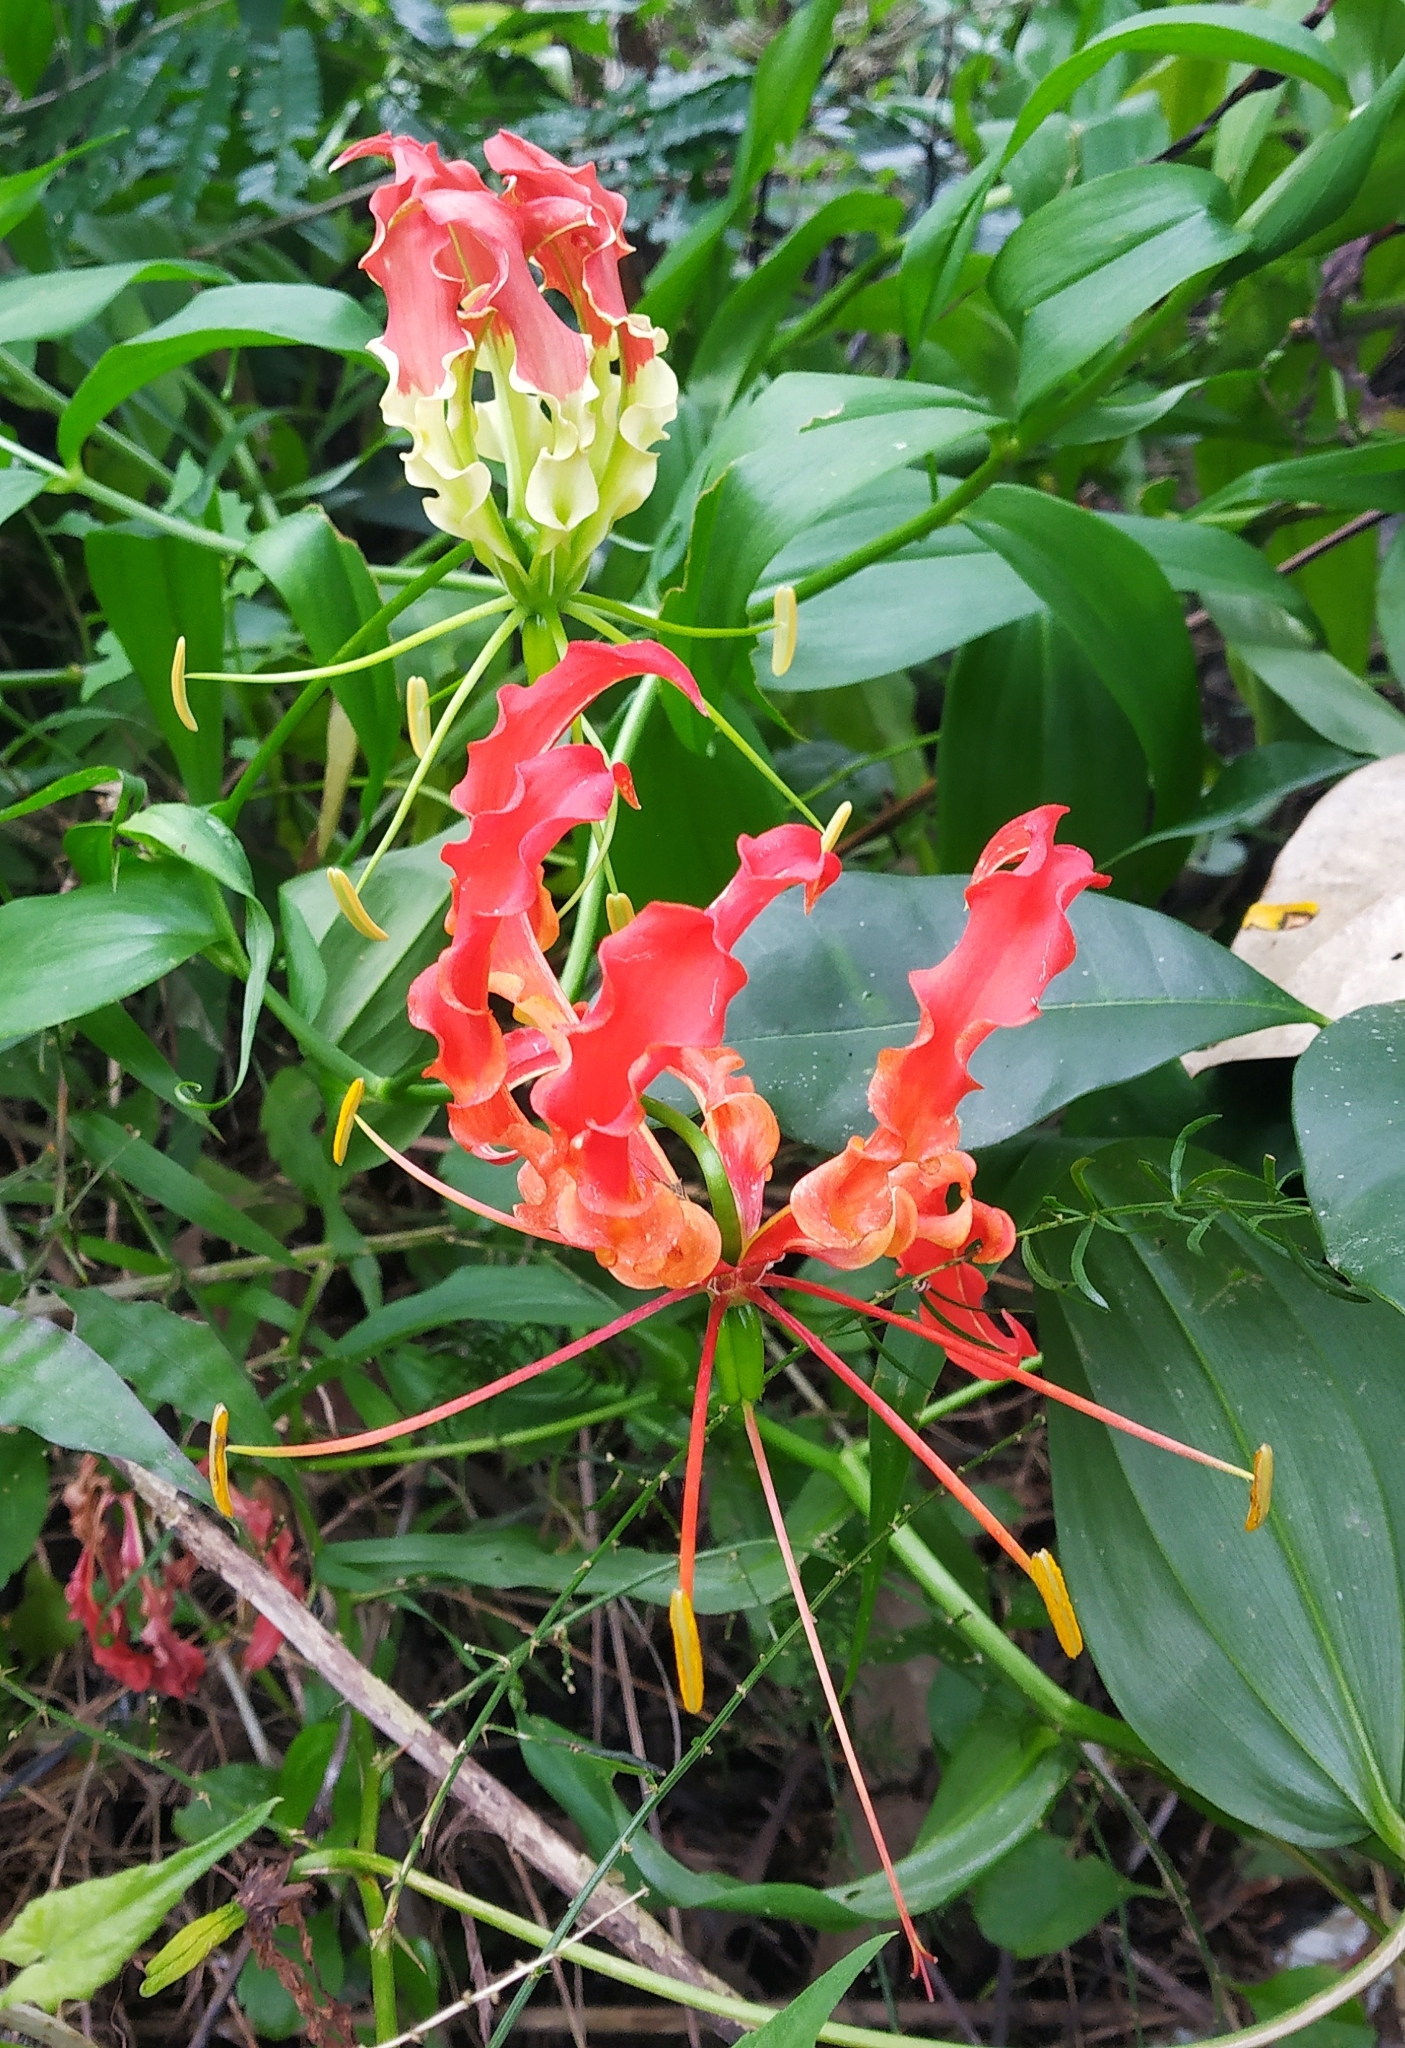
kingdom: Plantae
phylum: Tracheophyta
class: Liliopsida
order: Liliales
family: Colchicaceae
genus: Gloriosa
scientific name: Gloriosa superba
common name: Flame lily
